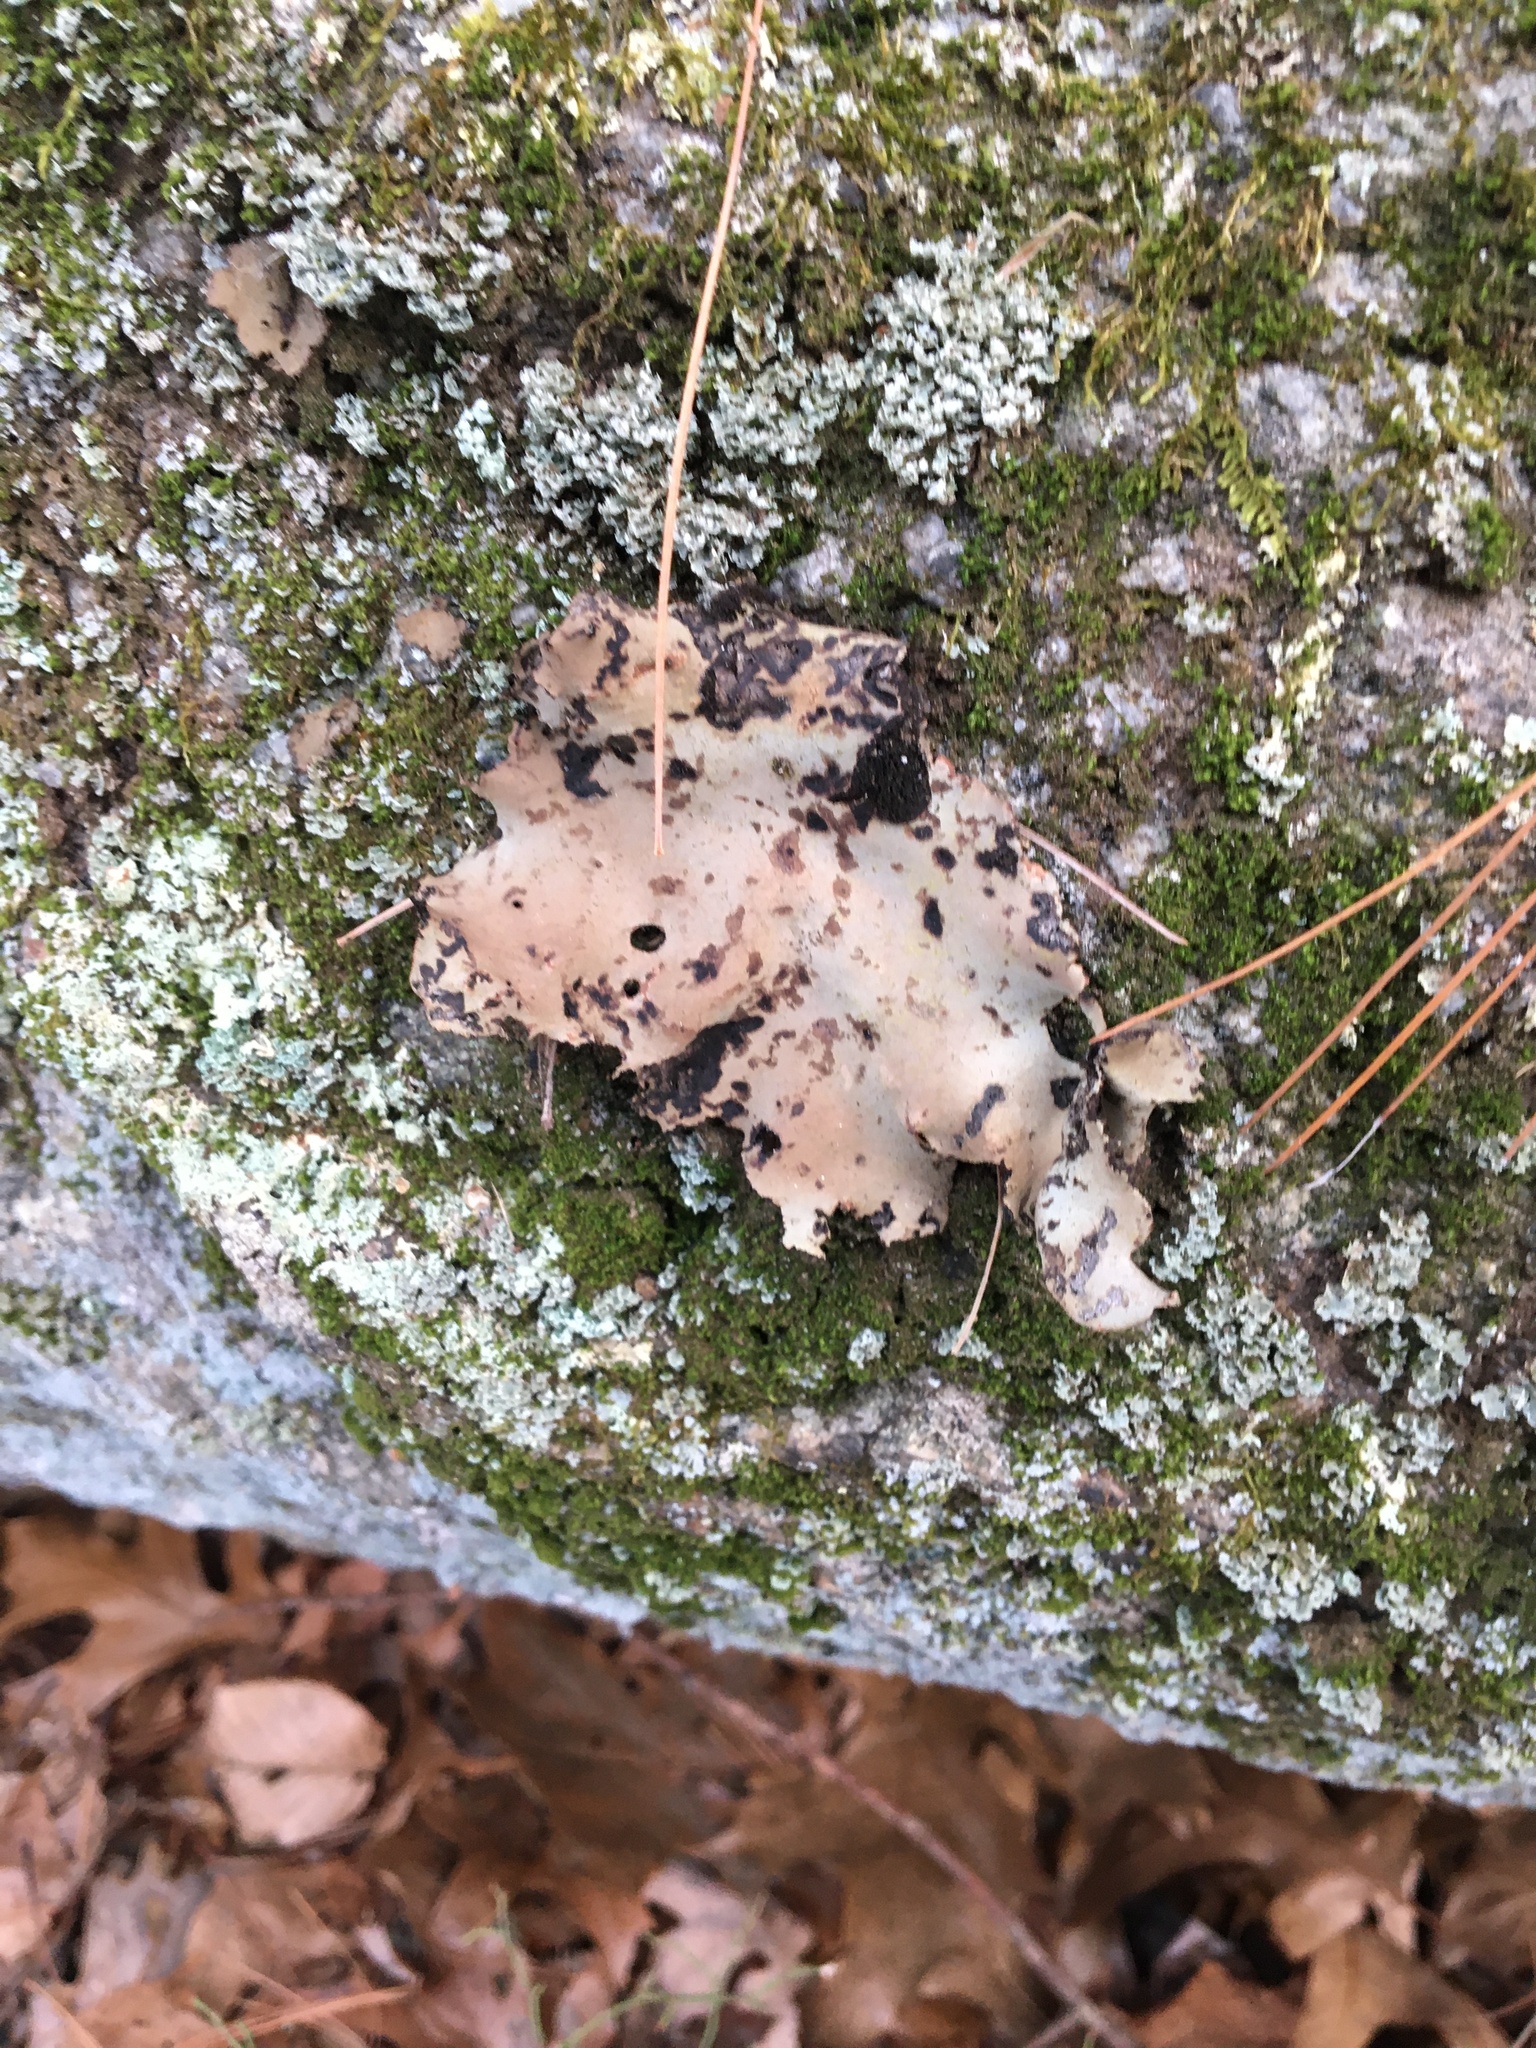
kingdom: Fungi
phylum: Ascomycota
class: Lecanoromycetes
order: Umbilicariales
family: Umbilicariaceae
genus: Umbilicaria
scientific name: Umbilicaria mammulata
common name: Smooth rock tripe
